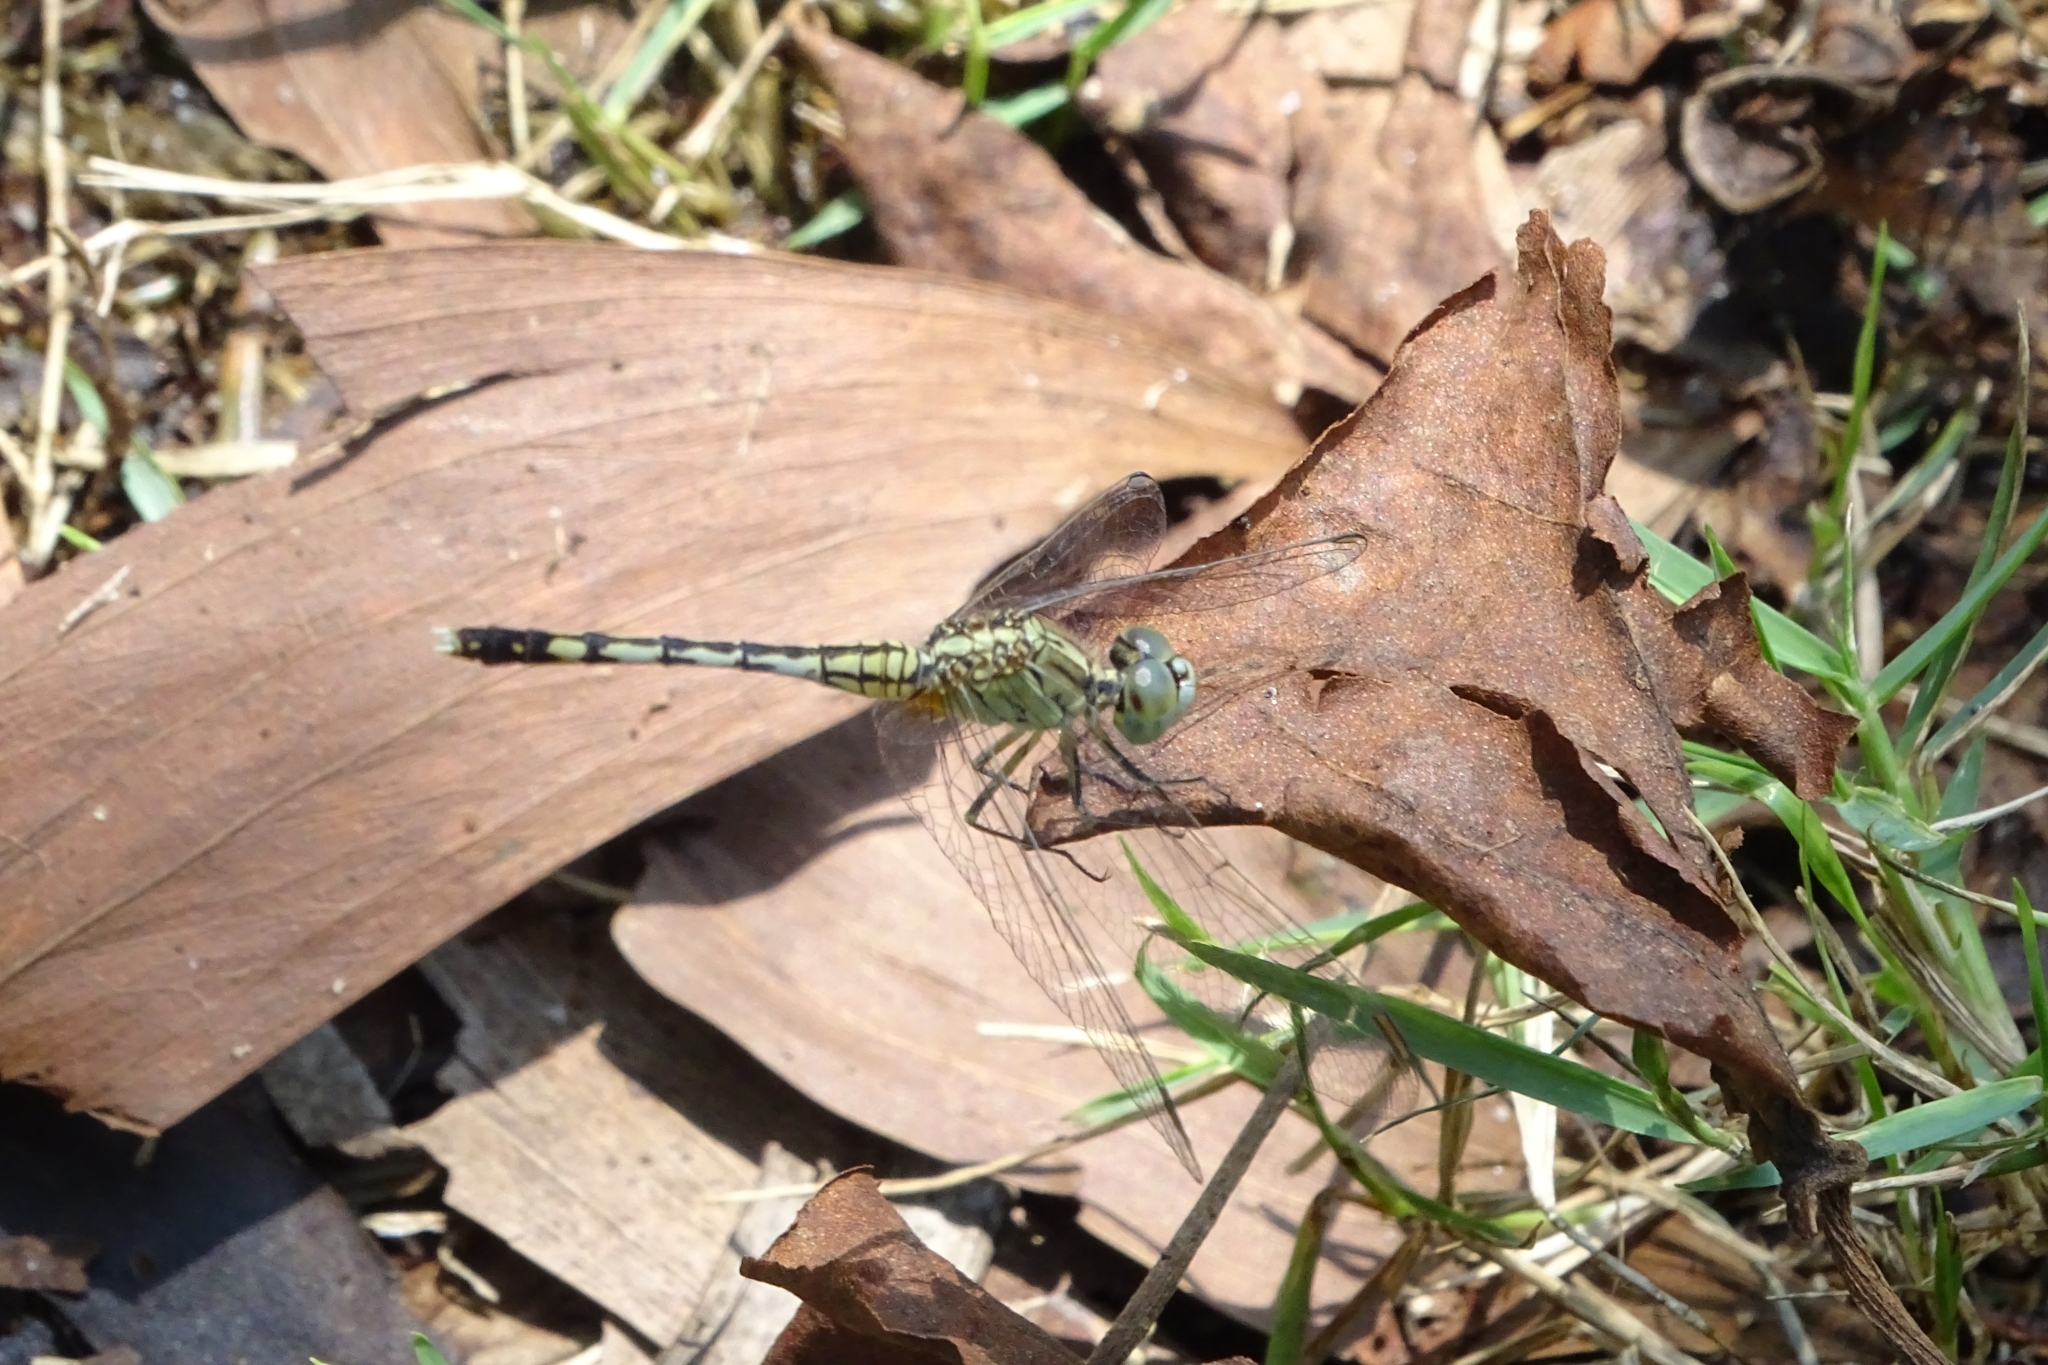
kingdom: Animalia
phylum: Arthropoda
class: Insecta
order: Odonata
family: Libellulidae
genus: Diplacodes
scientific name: Diplacodes trivialis
